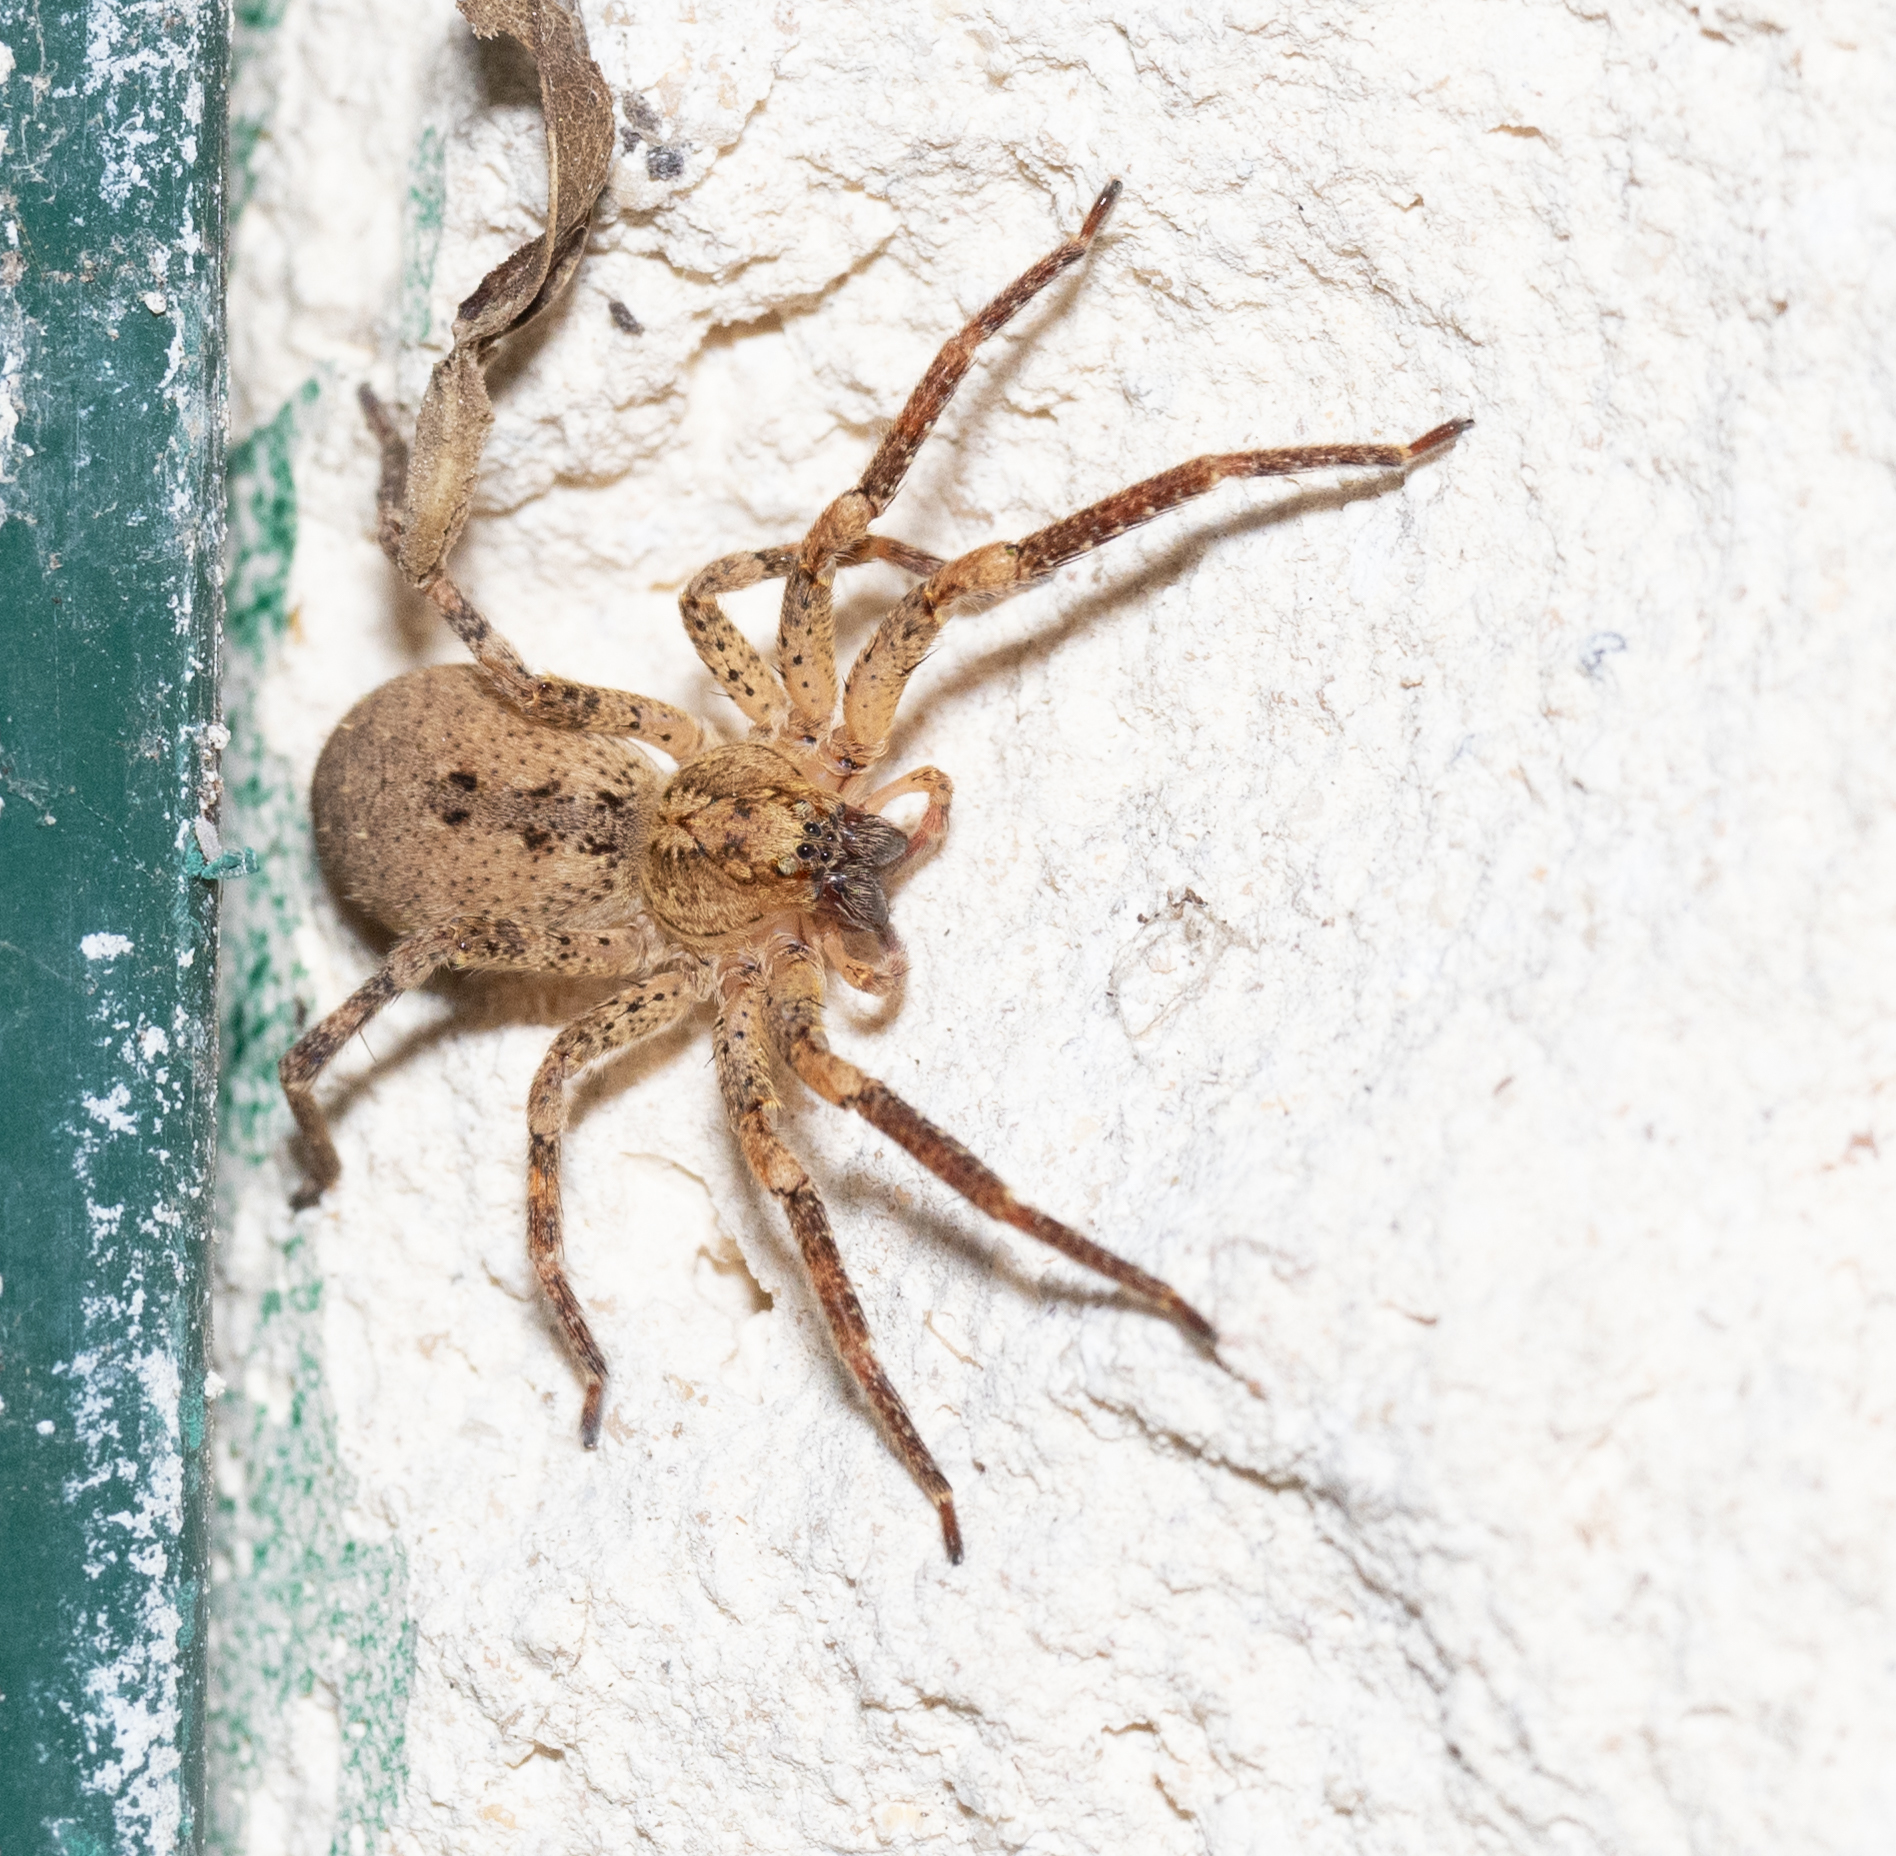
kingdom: Animalia
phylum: Arthropoda
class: Arachnida
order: Araneae
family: Zoropsidae
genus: Zoropsis
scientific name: Zoropsis spinimana
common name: Zoropsid spider
